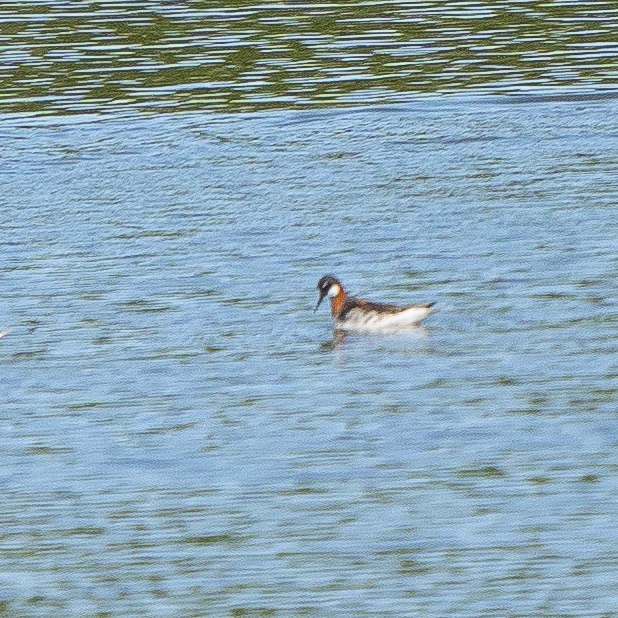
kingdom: Animalia
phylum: Chordata
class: Aves
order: Charadriiformes
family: Scolopacidae
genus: Phalaropus
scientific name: Phalaropus lobatus
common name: Red-necked phalarope
